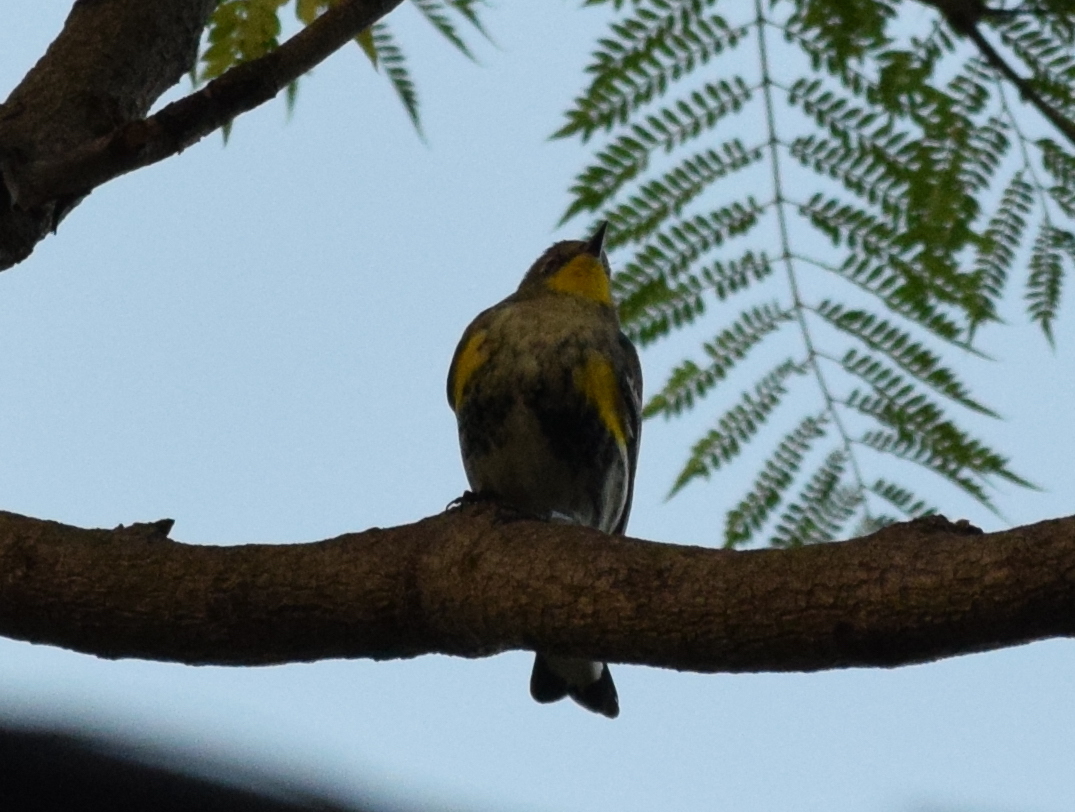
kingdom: Animalia
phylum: Chordata
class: Aves
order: Passeriformes
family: Parulidae
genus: Setophaga
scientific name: Setophaga auduboni
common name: Audubon's warbler
